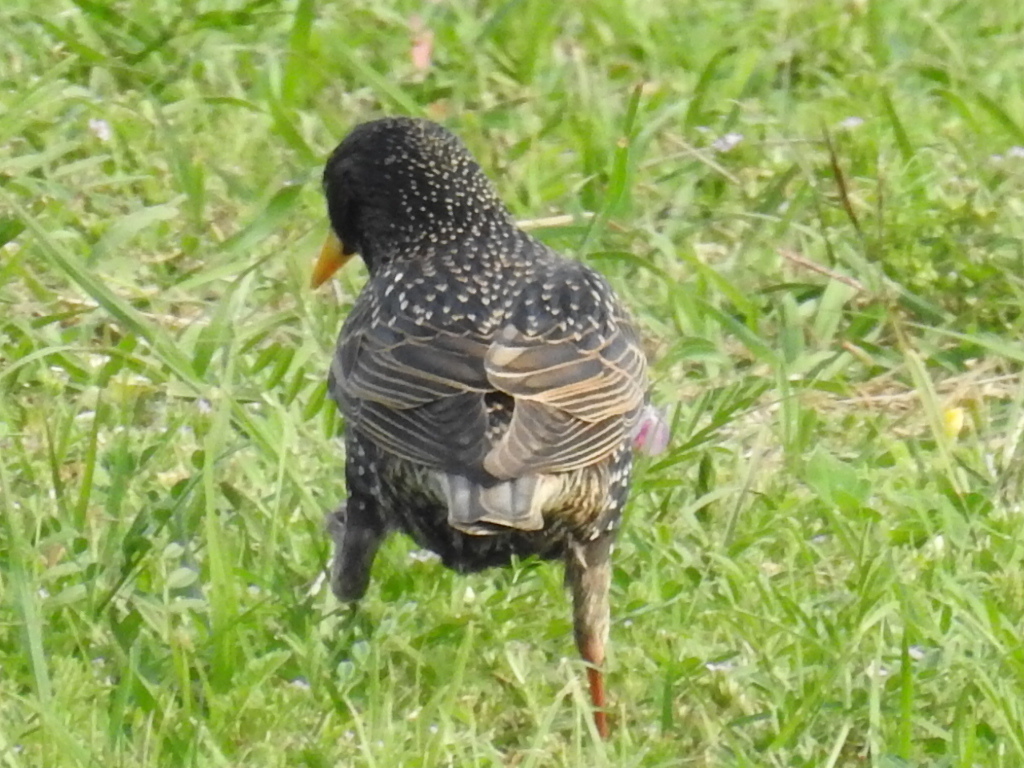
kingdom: Animalia
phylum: Chordata
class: Aves
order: Passeriformes
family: Sturnidae
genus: Sturnus
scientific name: Sturnus vulgaris
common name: Common starling
